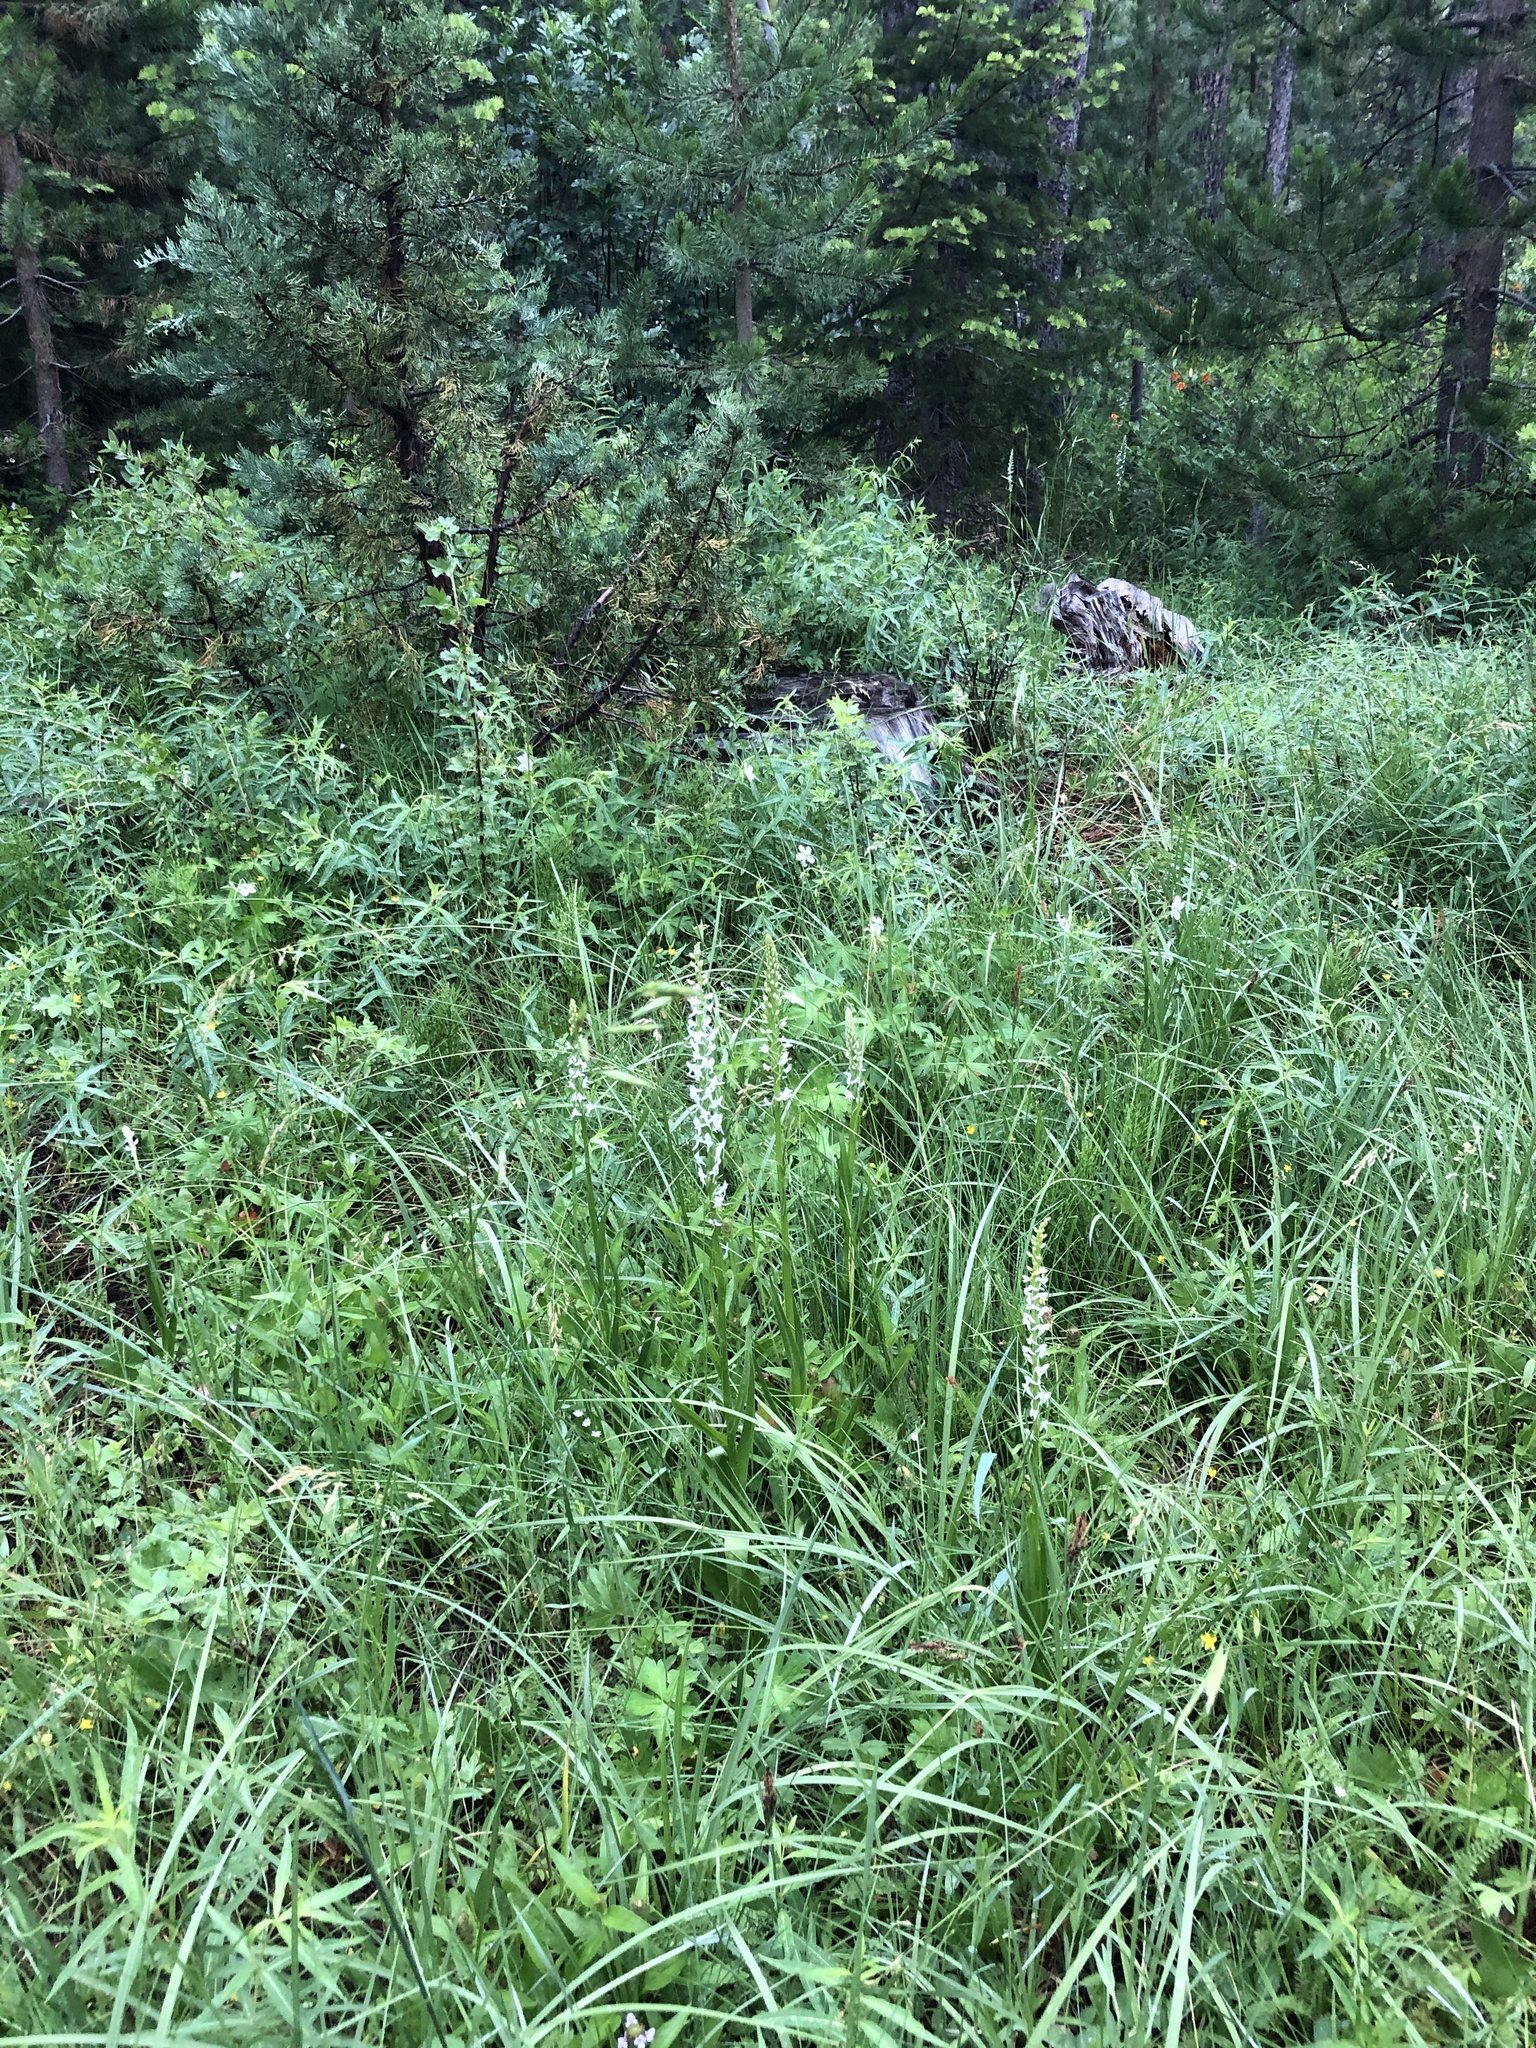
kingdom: Plantae
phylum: Tracheophyta
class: Liliopsida
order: Asparagales
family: Orchidaceae
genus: Platanthera
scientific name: Platanthera dilatata
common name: Bog candles
